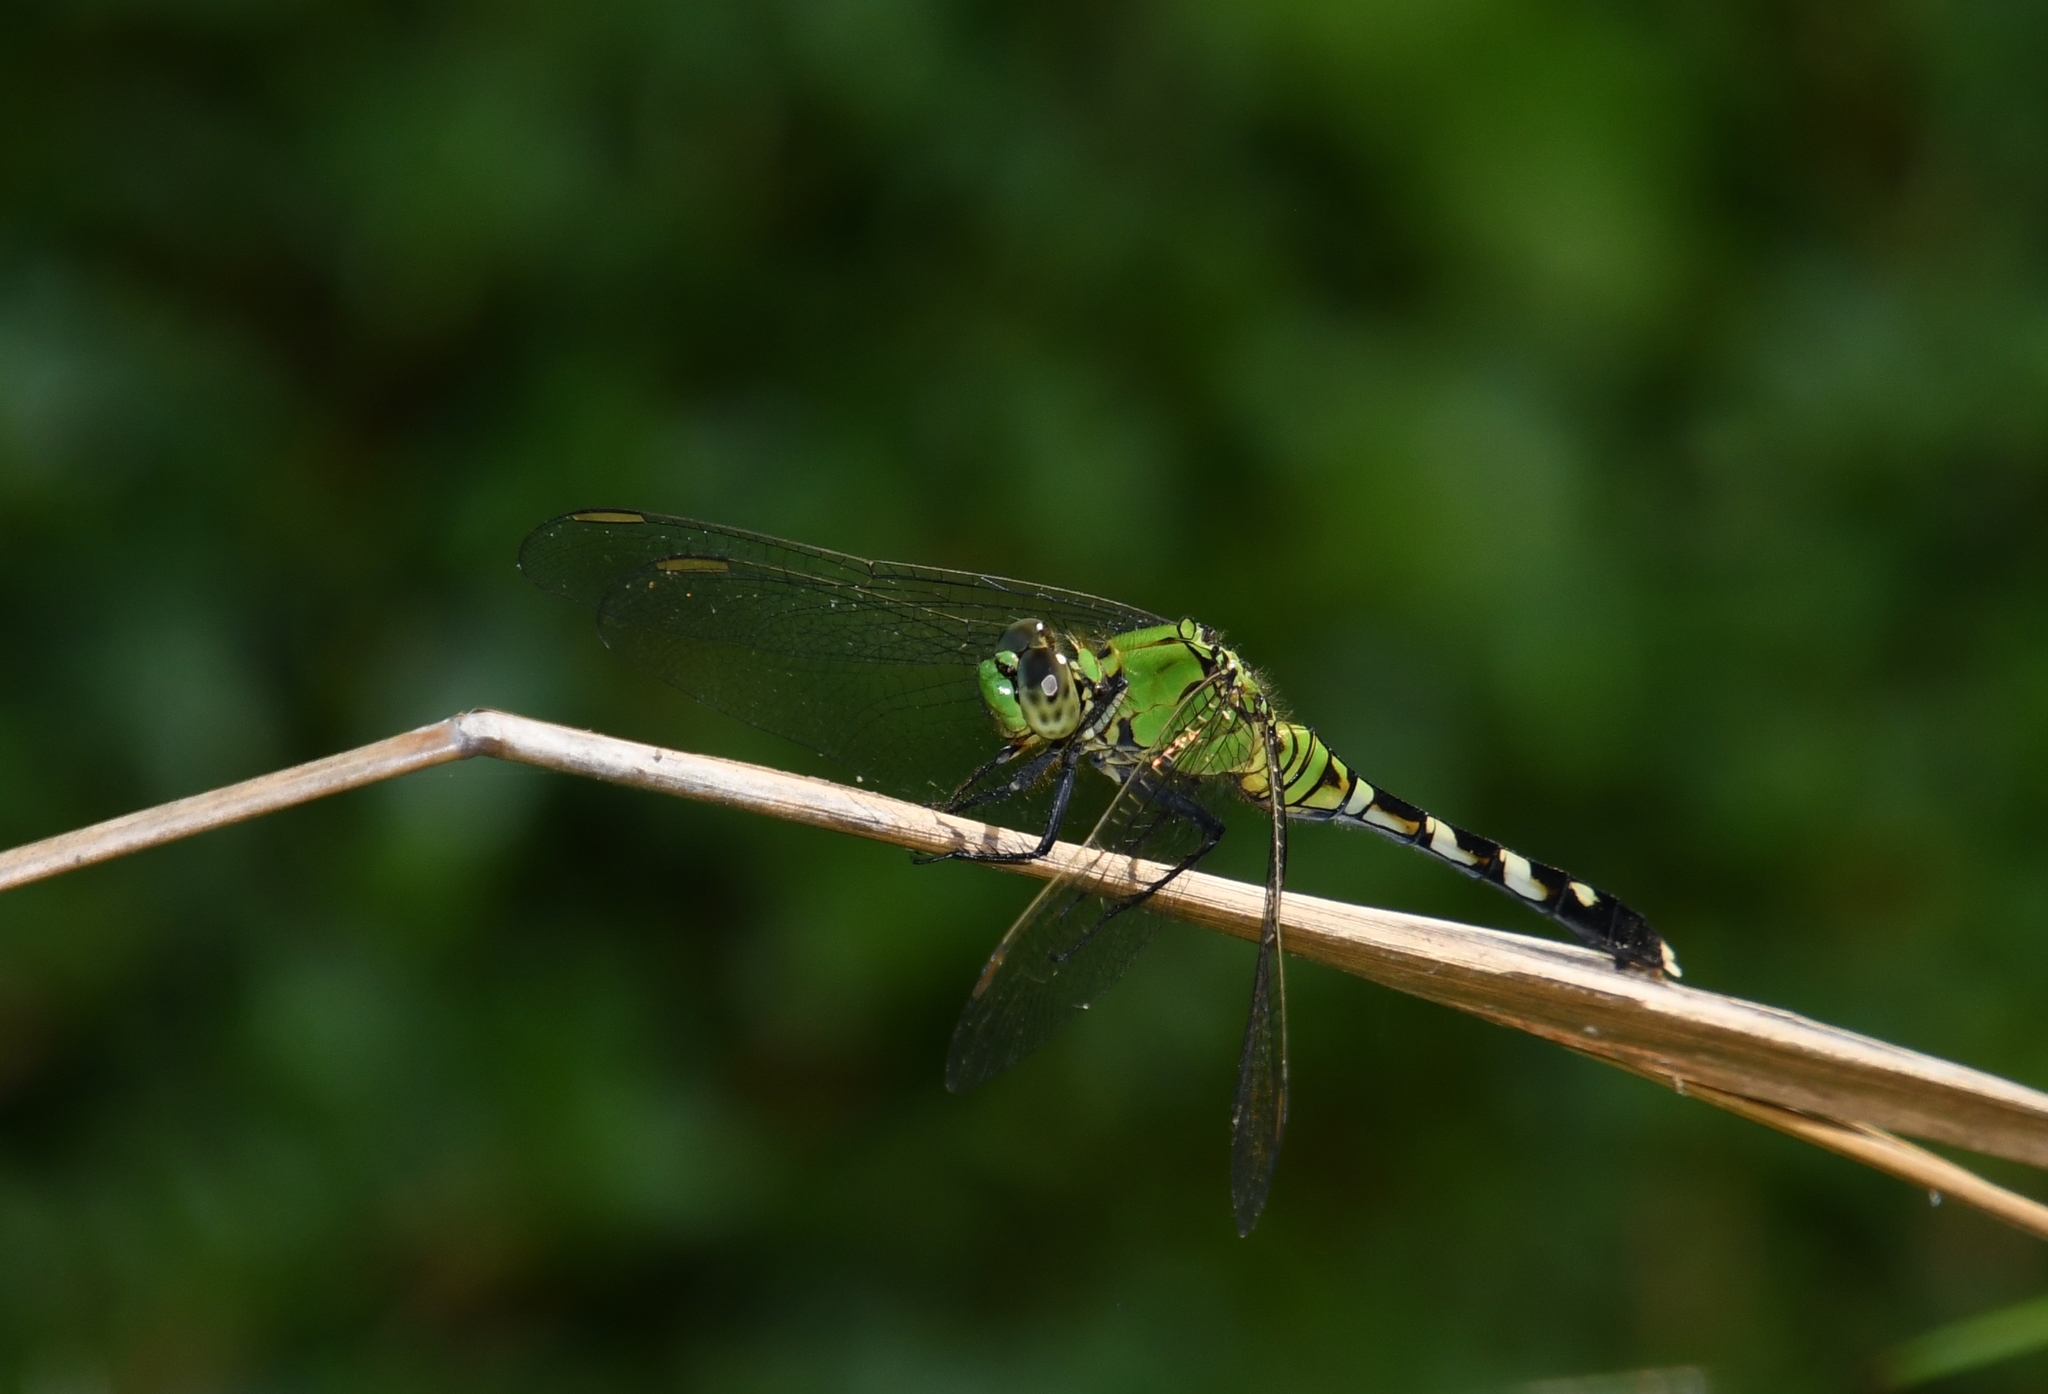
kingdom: Animalia
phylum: Arthropoda
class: Insecta
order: Odonata
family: Libellulidae
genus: Erythemis
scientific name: Erythemis simplicicollis
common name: Eastern pondhawk
